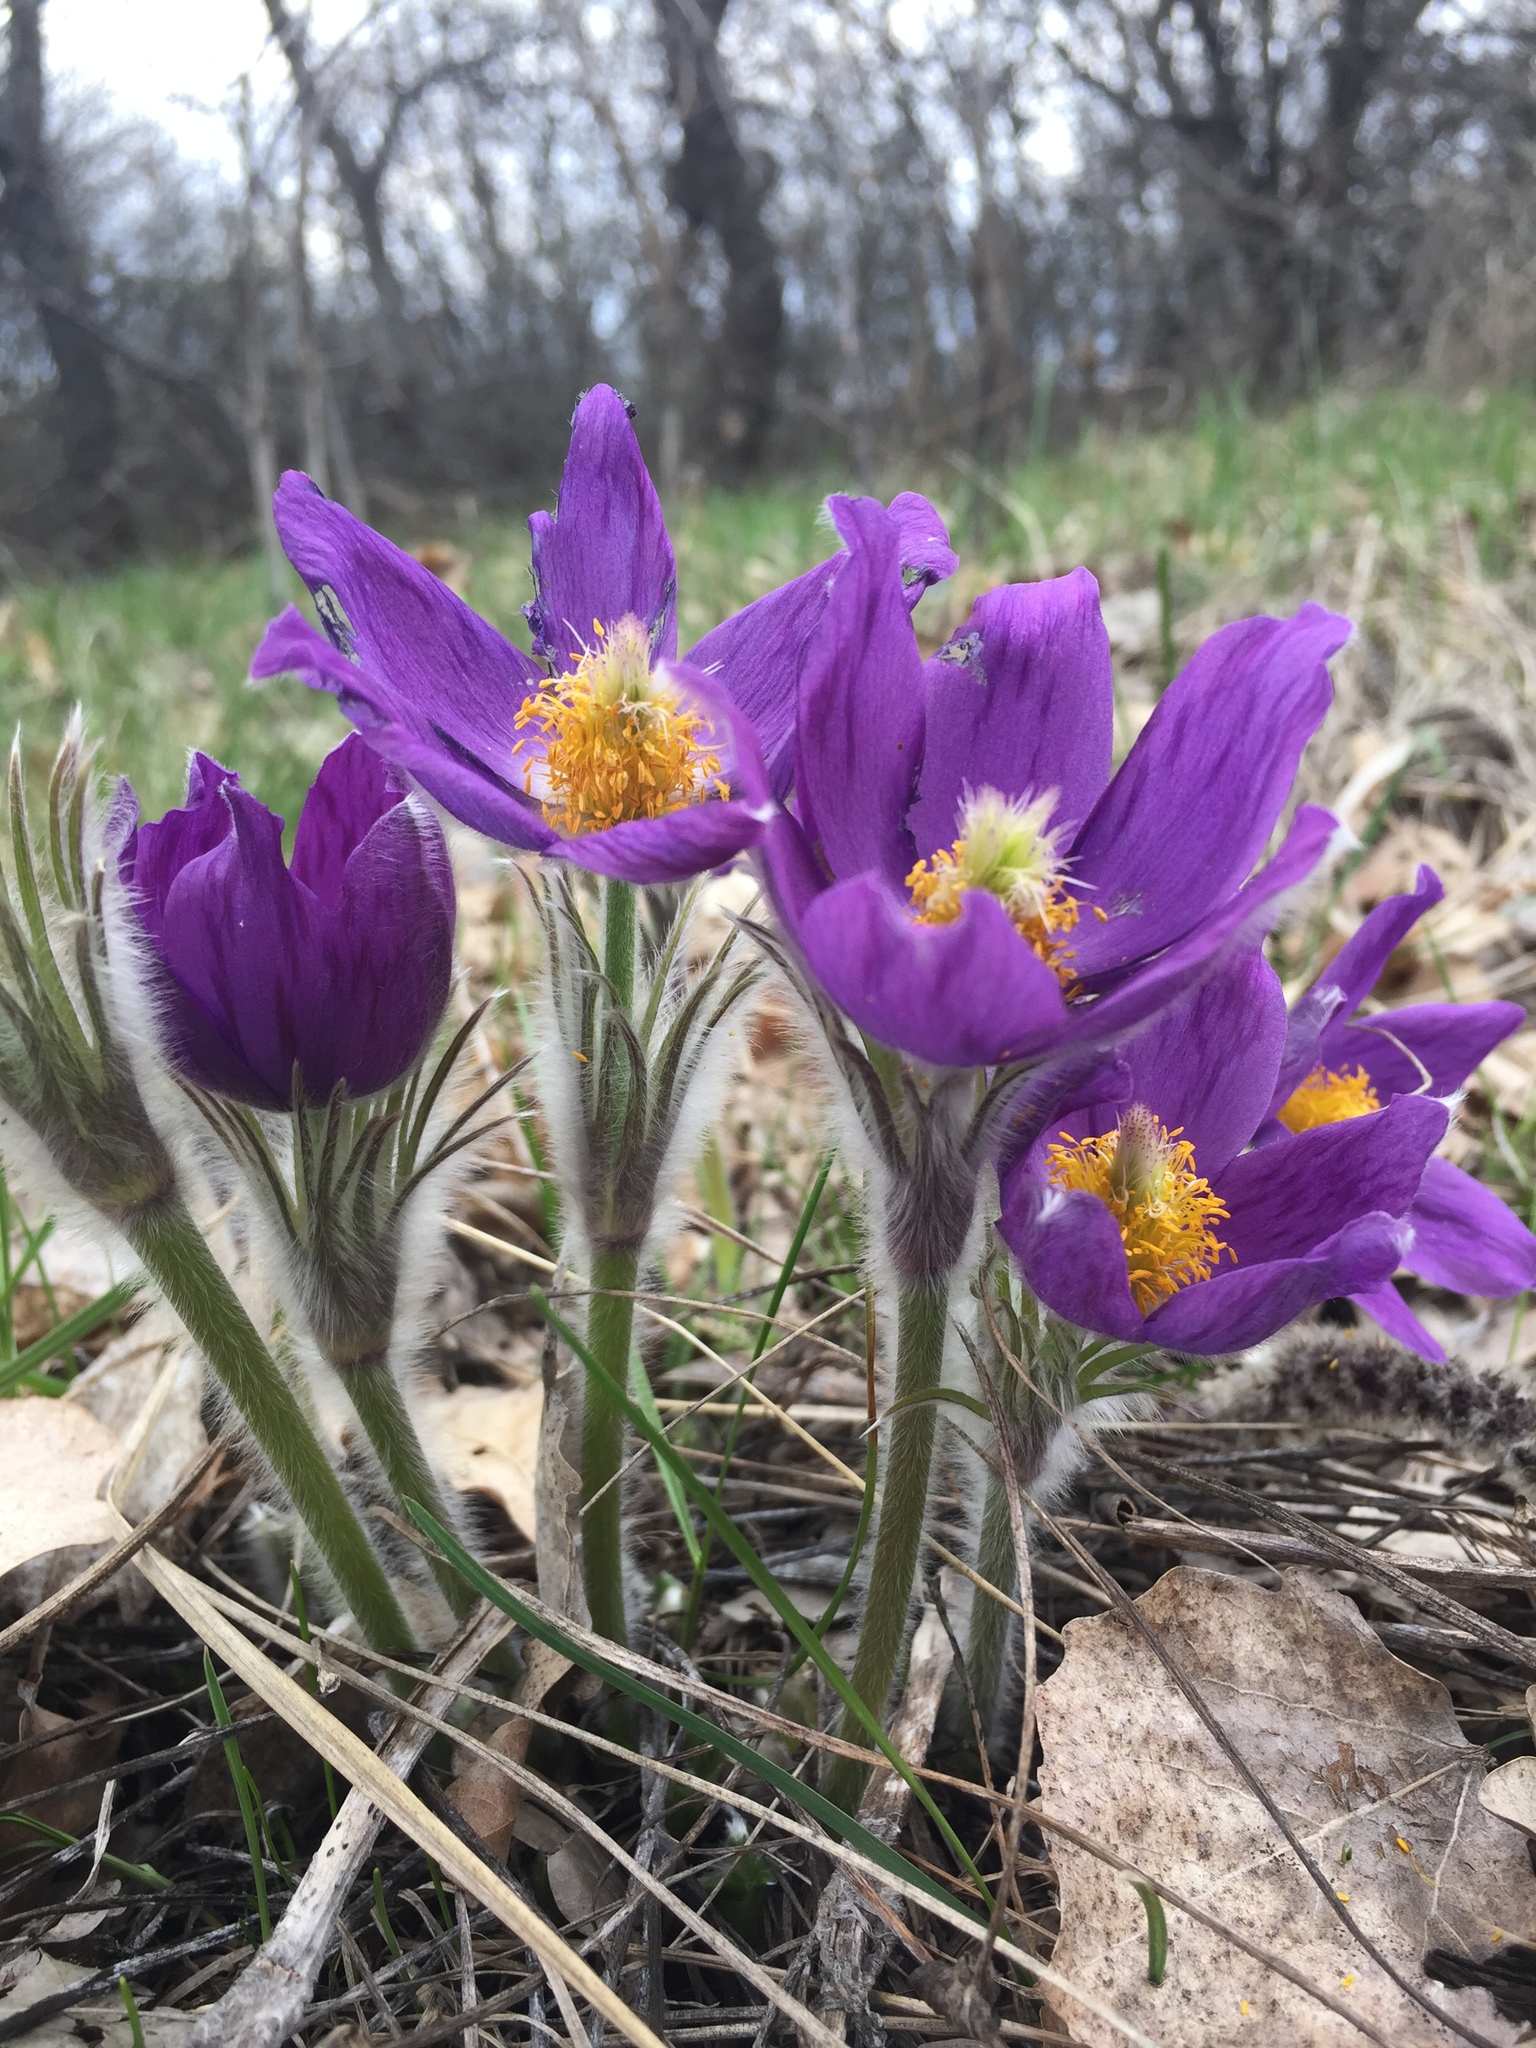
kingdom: Plantae
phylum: Tracheophyta
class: Magnoliopsida
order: Ranunculales
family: Ranunculaceae
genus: Pulsatilla
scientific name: Pulsatilla patens
